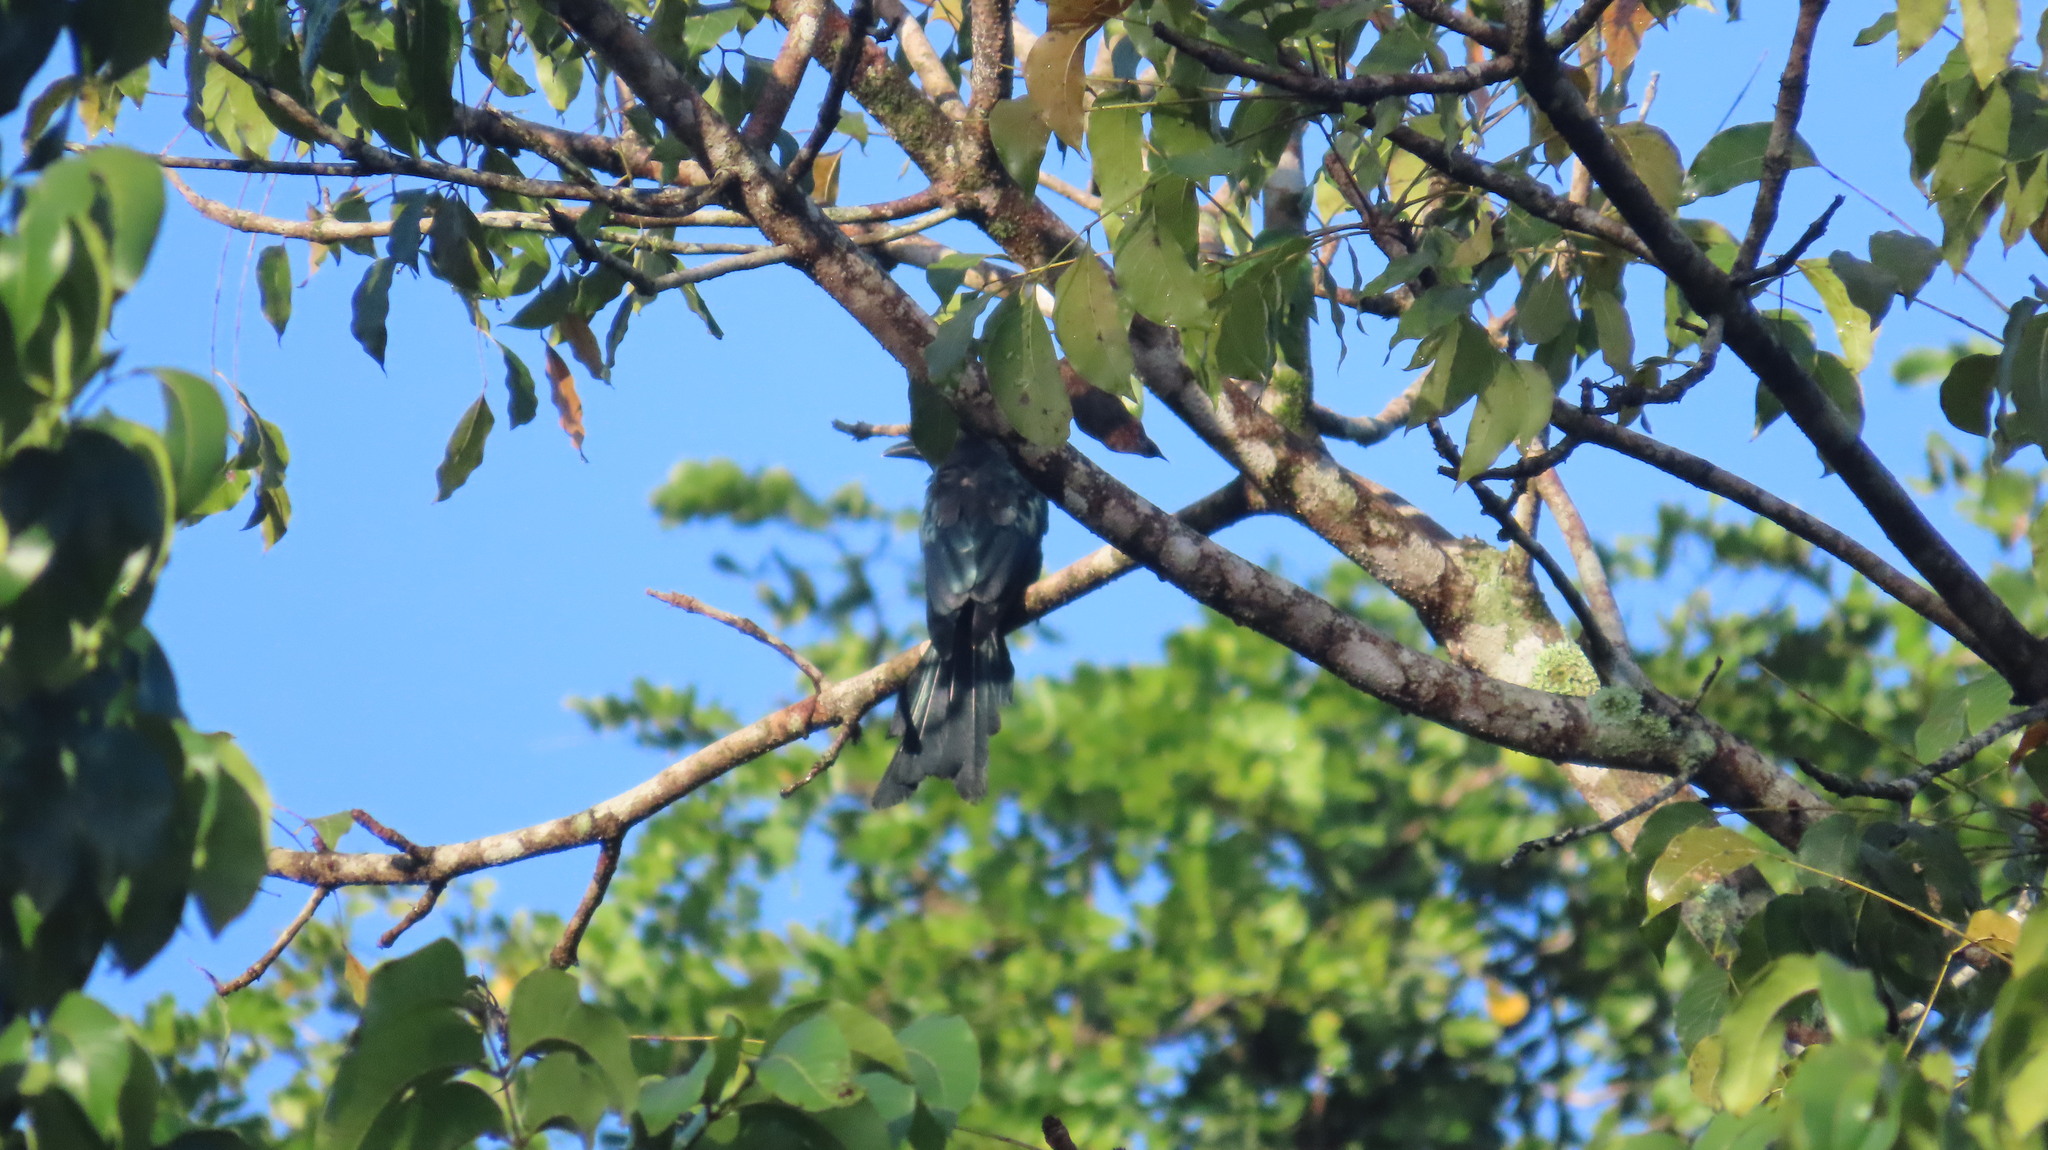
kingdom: Animalia
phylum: Chordata
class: Aves
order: Passeriformes
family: Dicruridae
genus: Dicrurus
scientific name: Dicrurus paradiseus
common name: Greater racket-tailed drongo
